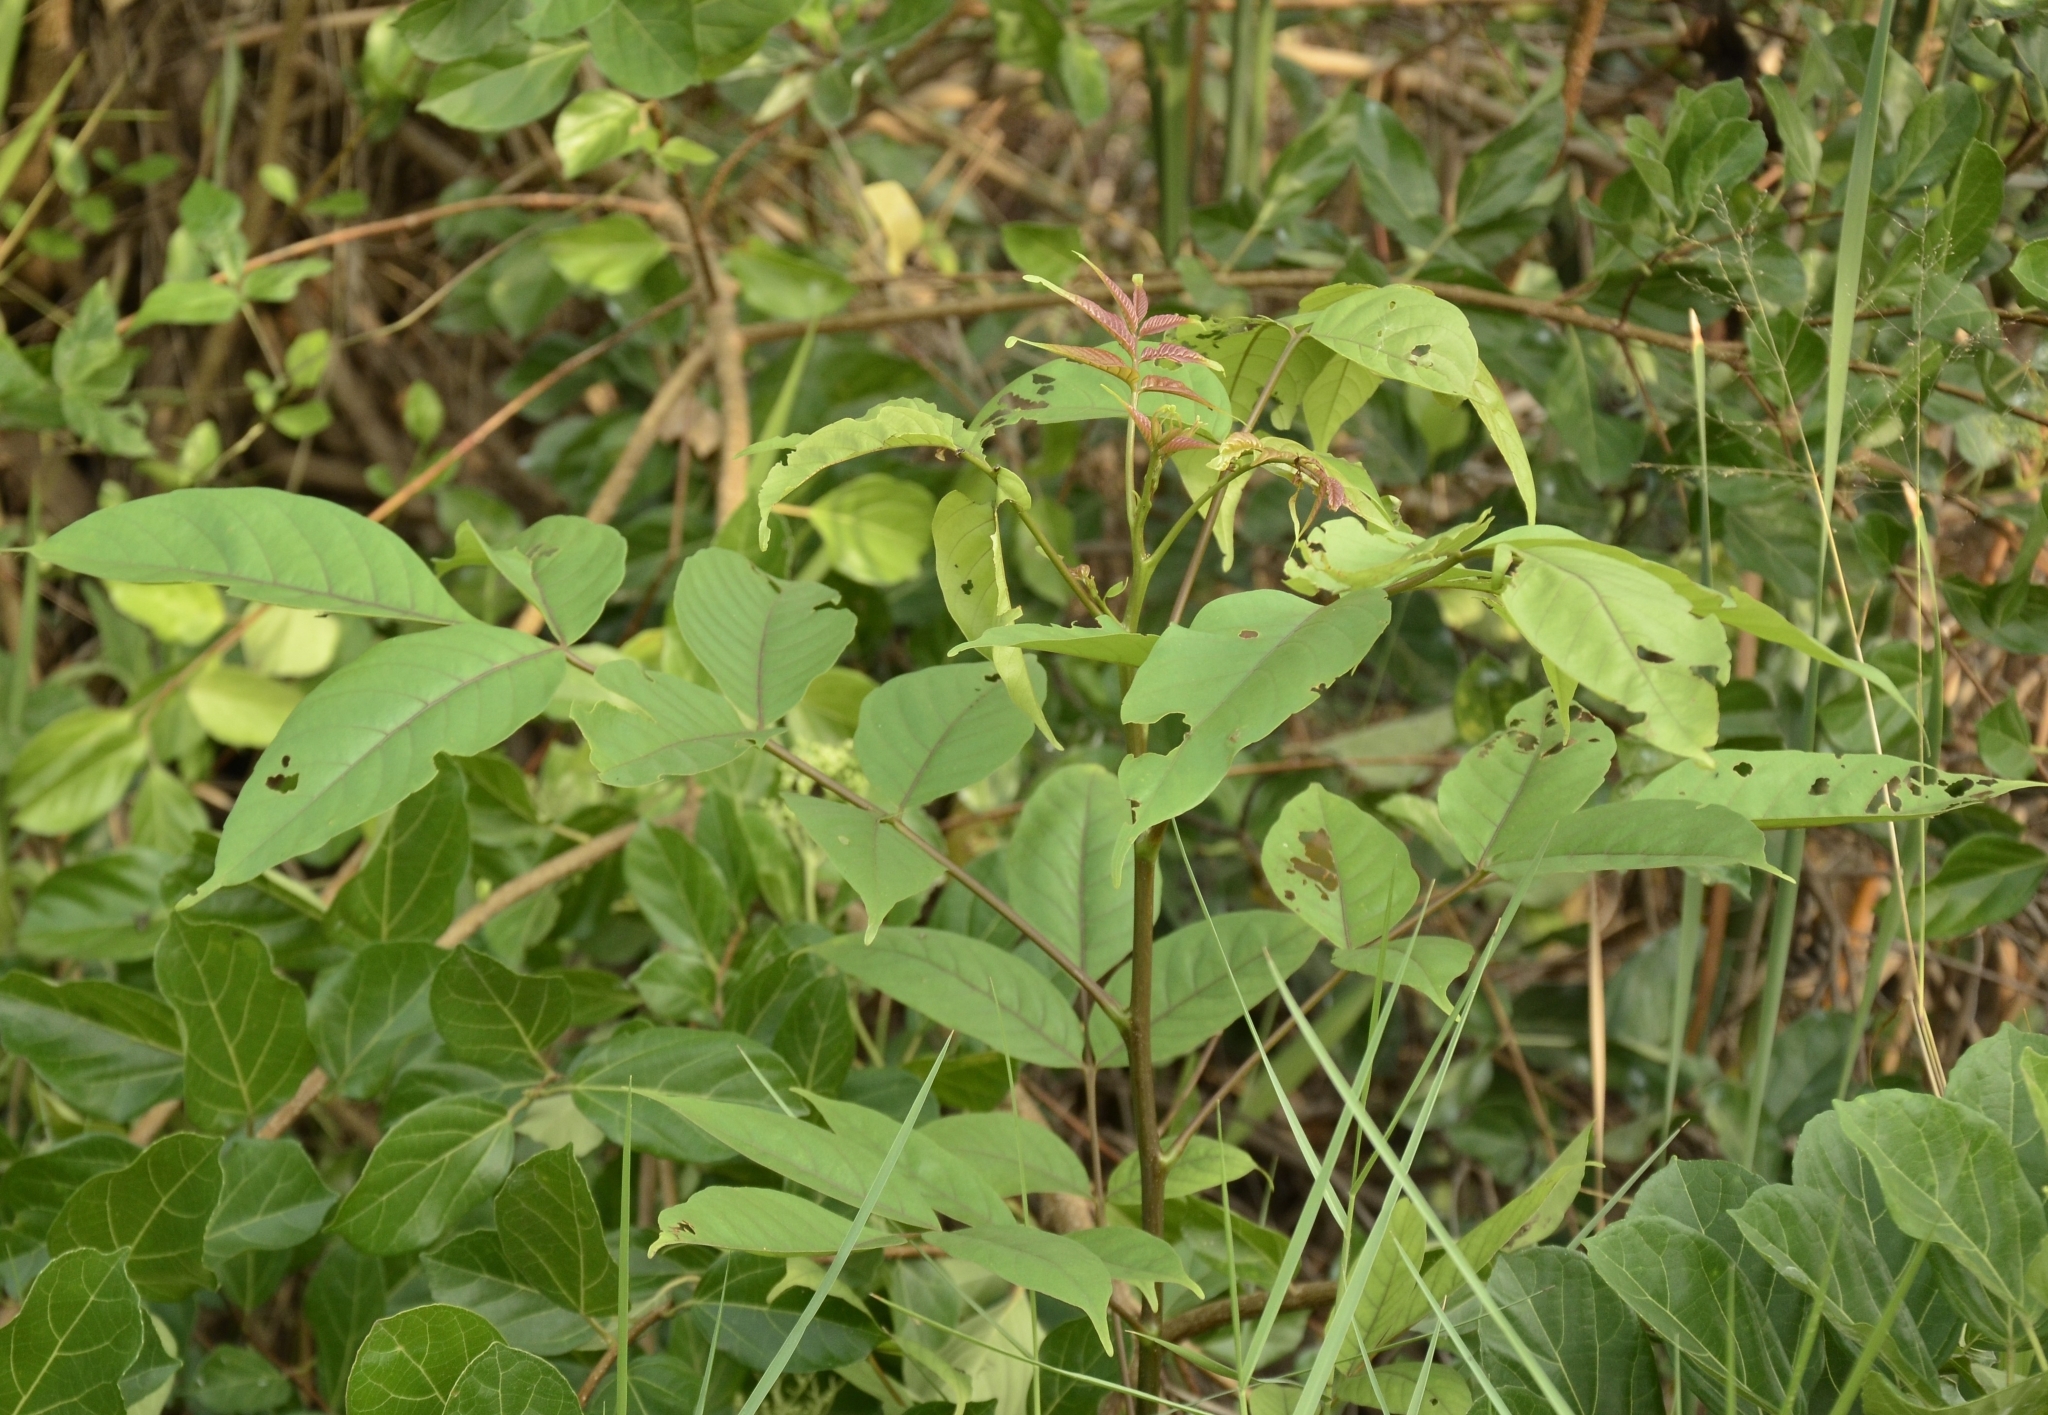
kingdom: Plantae
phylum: Tracheophyta
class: Magnoliopsida
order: Sapindales
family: Anacardiaceae
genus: Lannea
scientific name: Lannea coromandelica
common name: Indian ash tree
